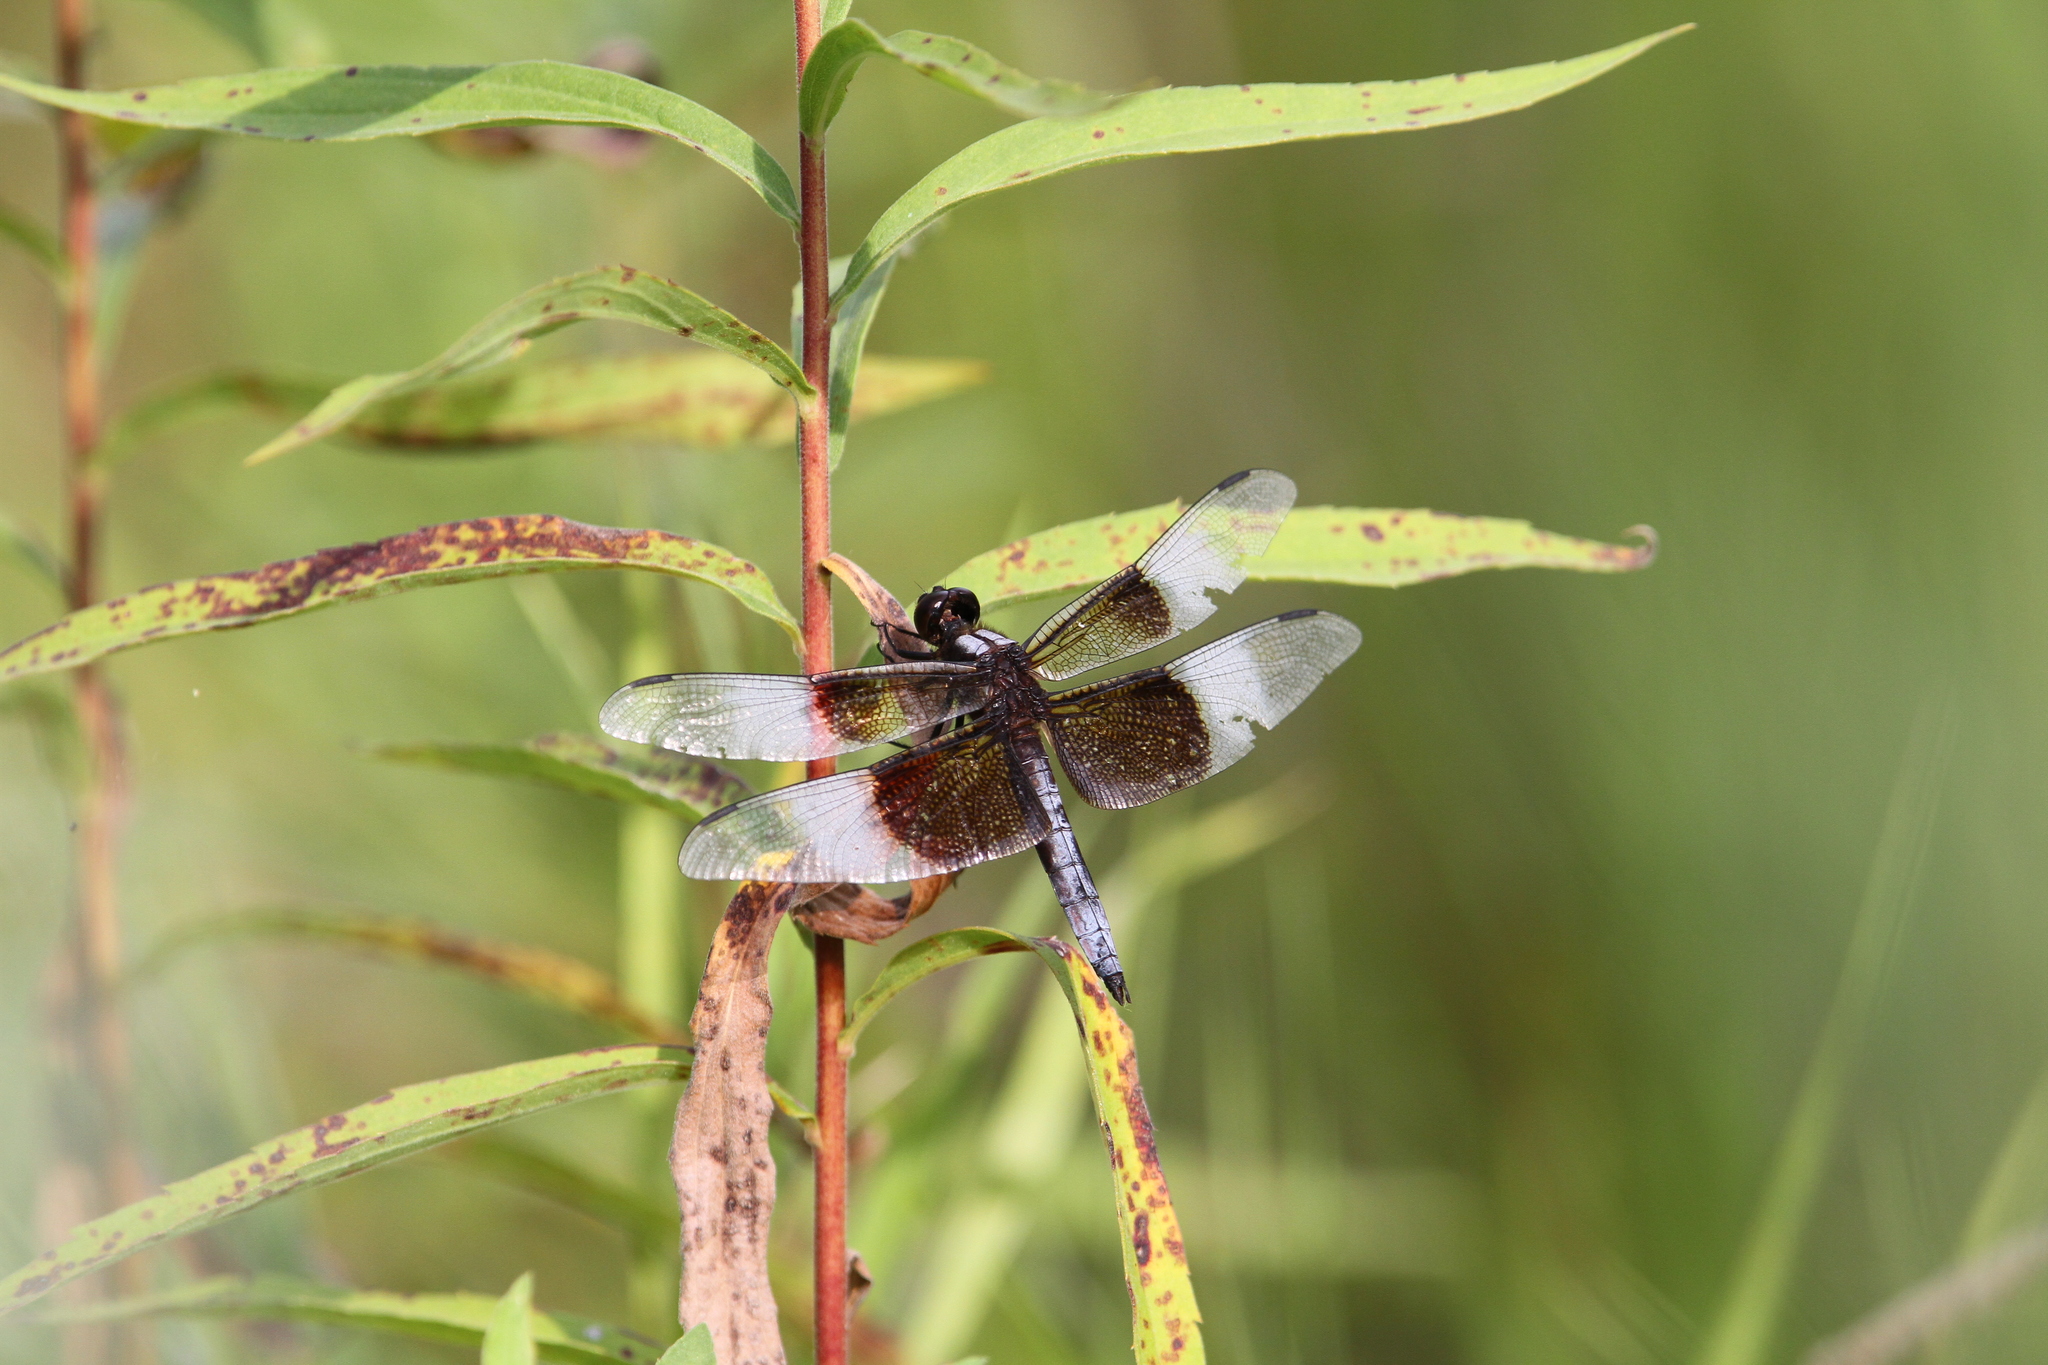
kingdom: Animalia
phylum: Arthropoda
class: Insecta
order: Odonata
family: Libellulidae
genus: Libellula
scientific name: Libellula luctuosa
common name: Widow skimmer
